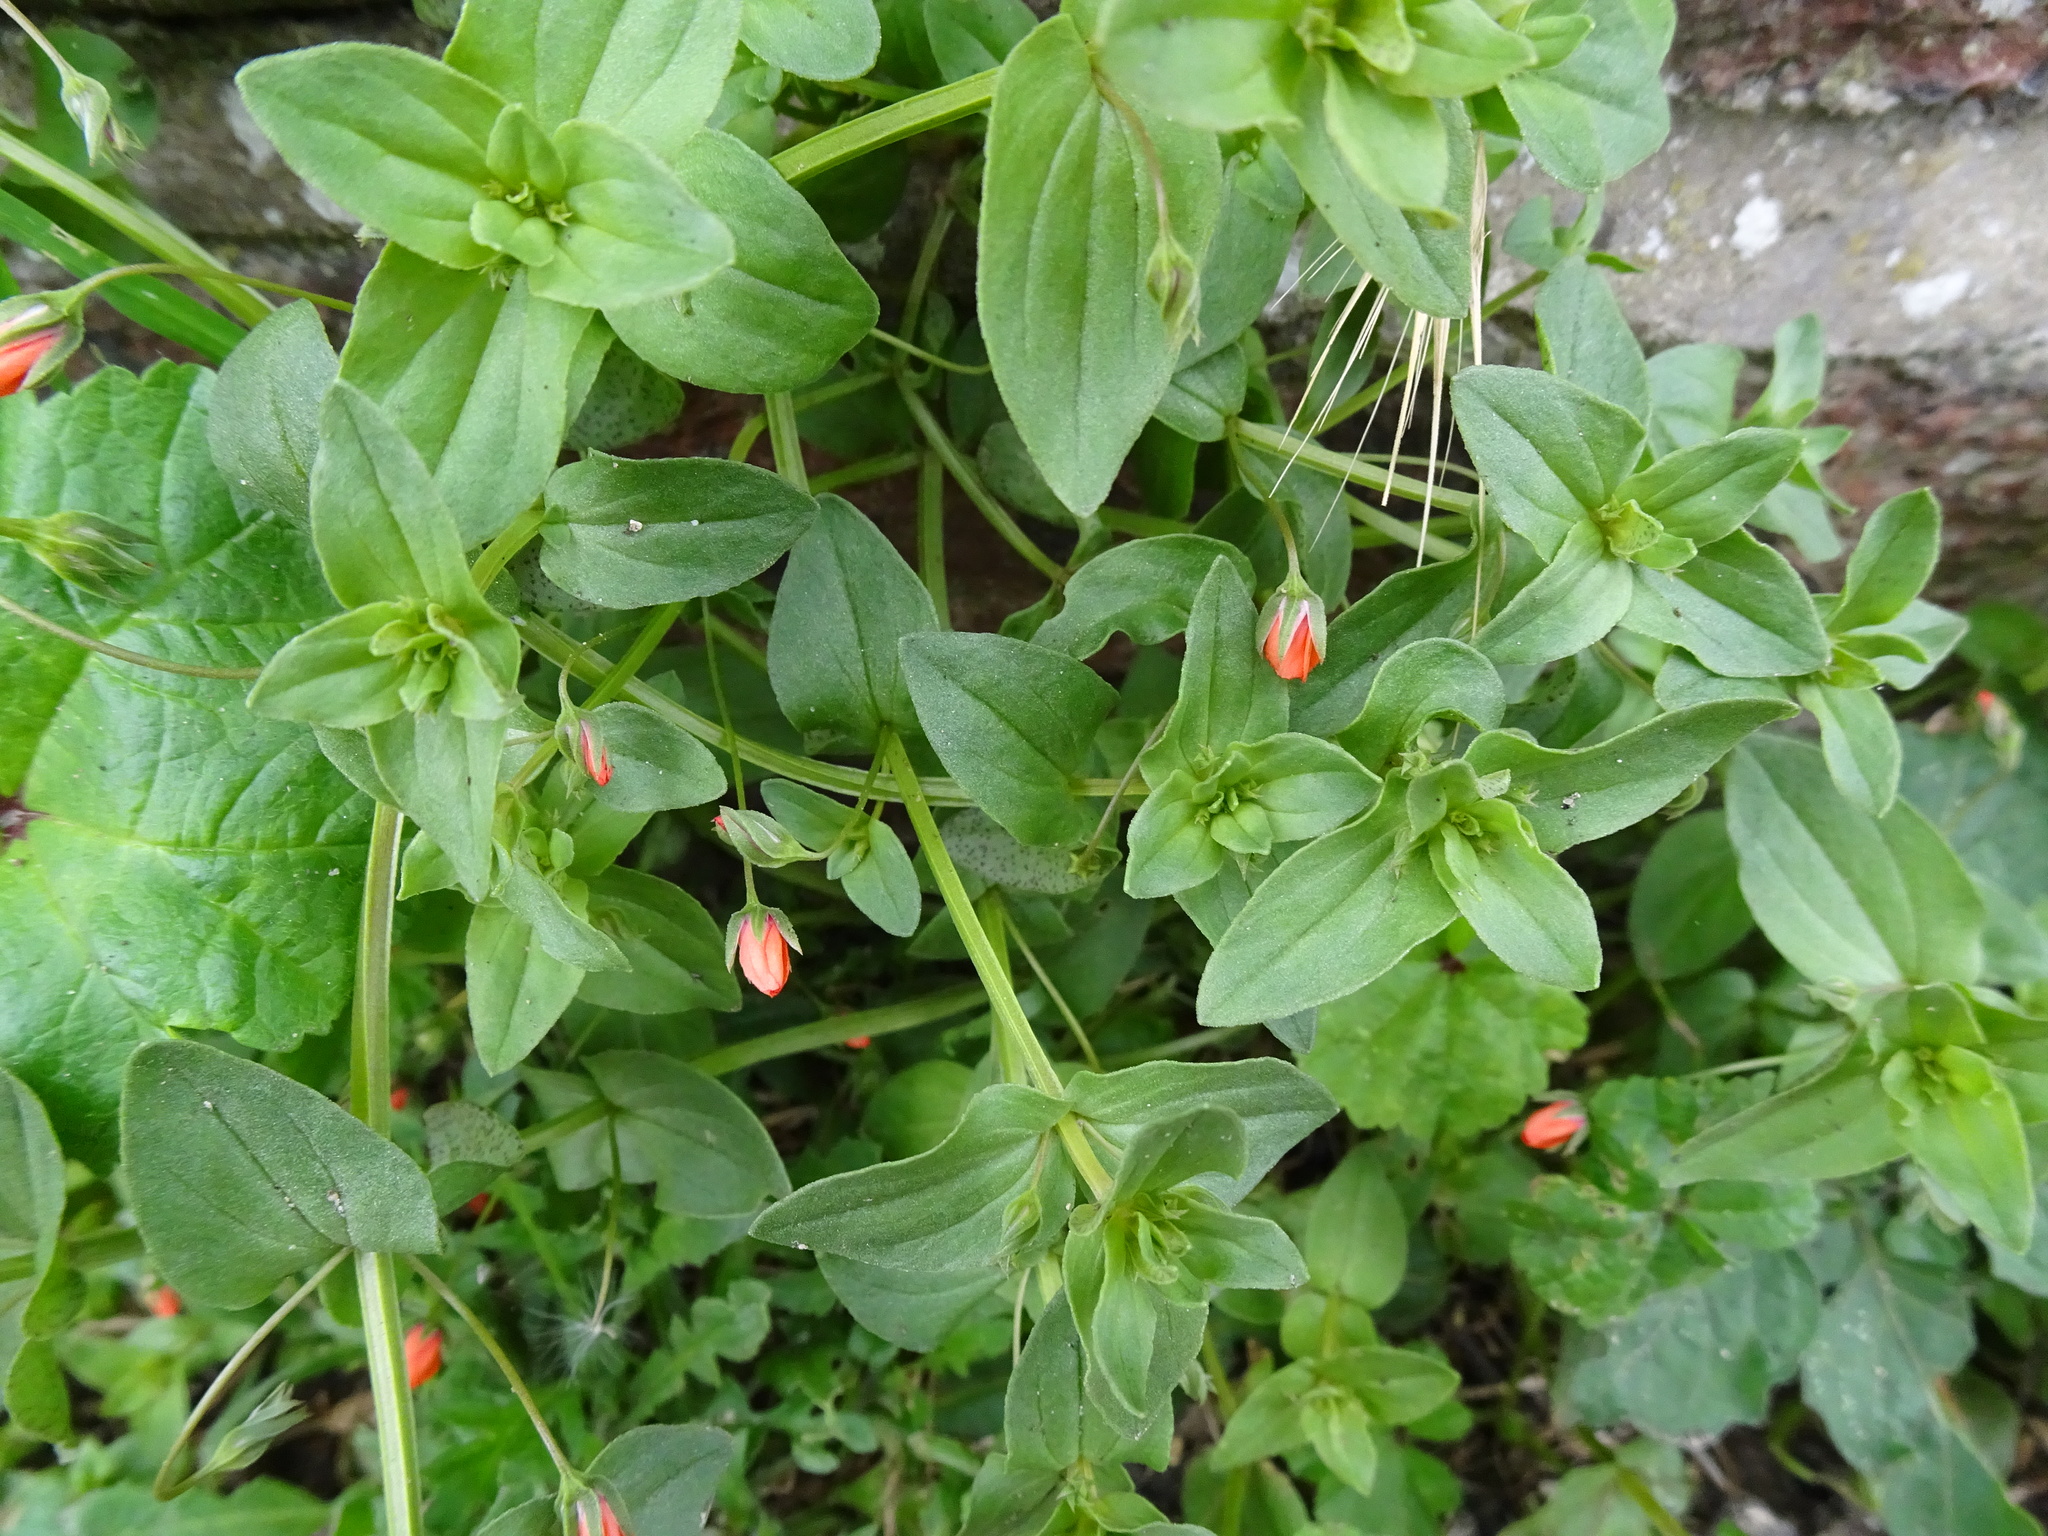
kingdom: Plantae
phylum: Tracheophyta
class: Magnoliopsida
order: Ericales
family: Primulaceae
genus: Lysimachia
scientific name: Lysimachia arvensis
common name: Scarlet pimpernel
